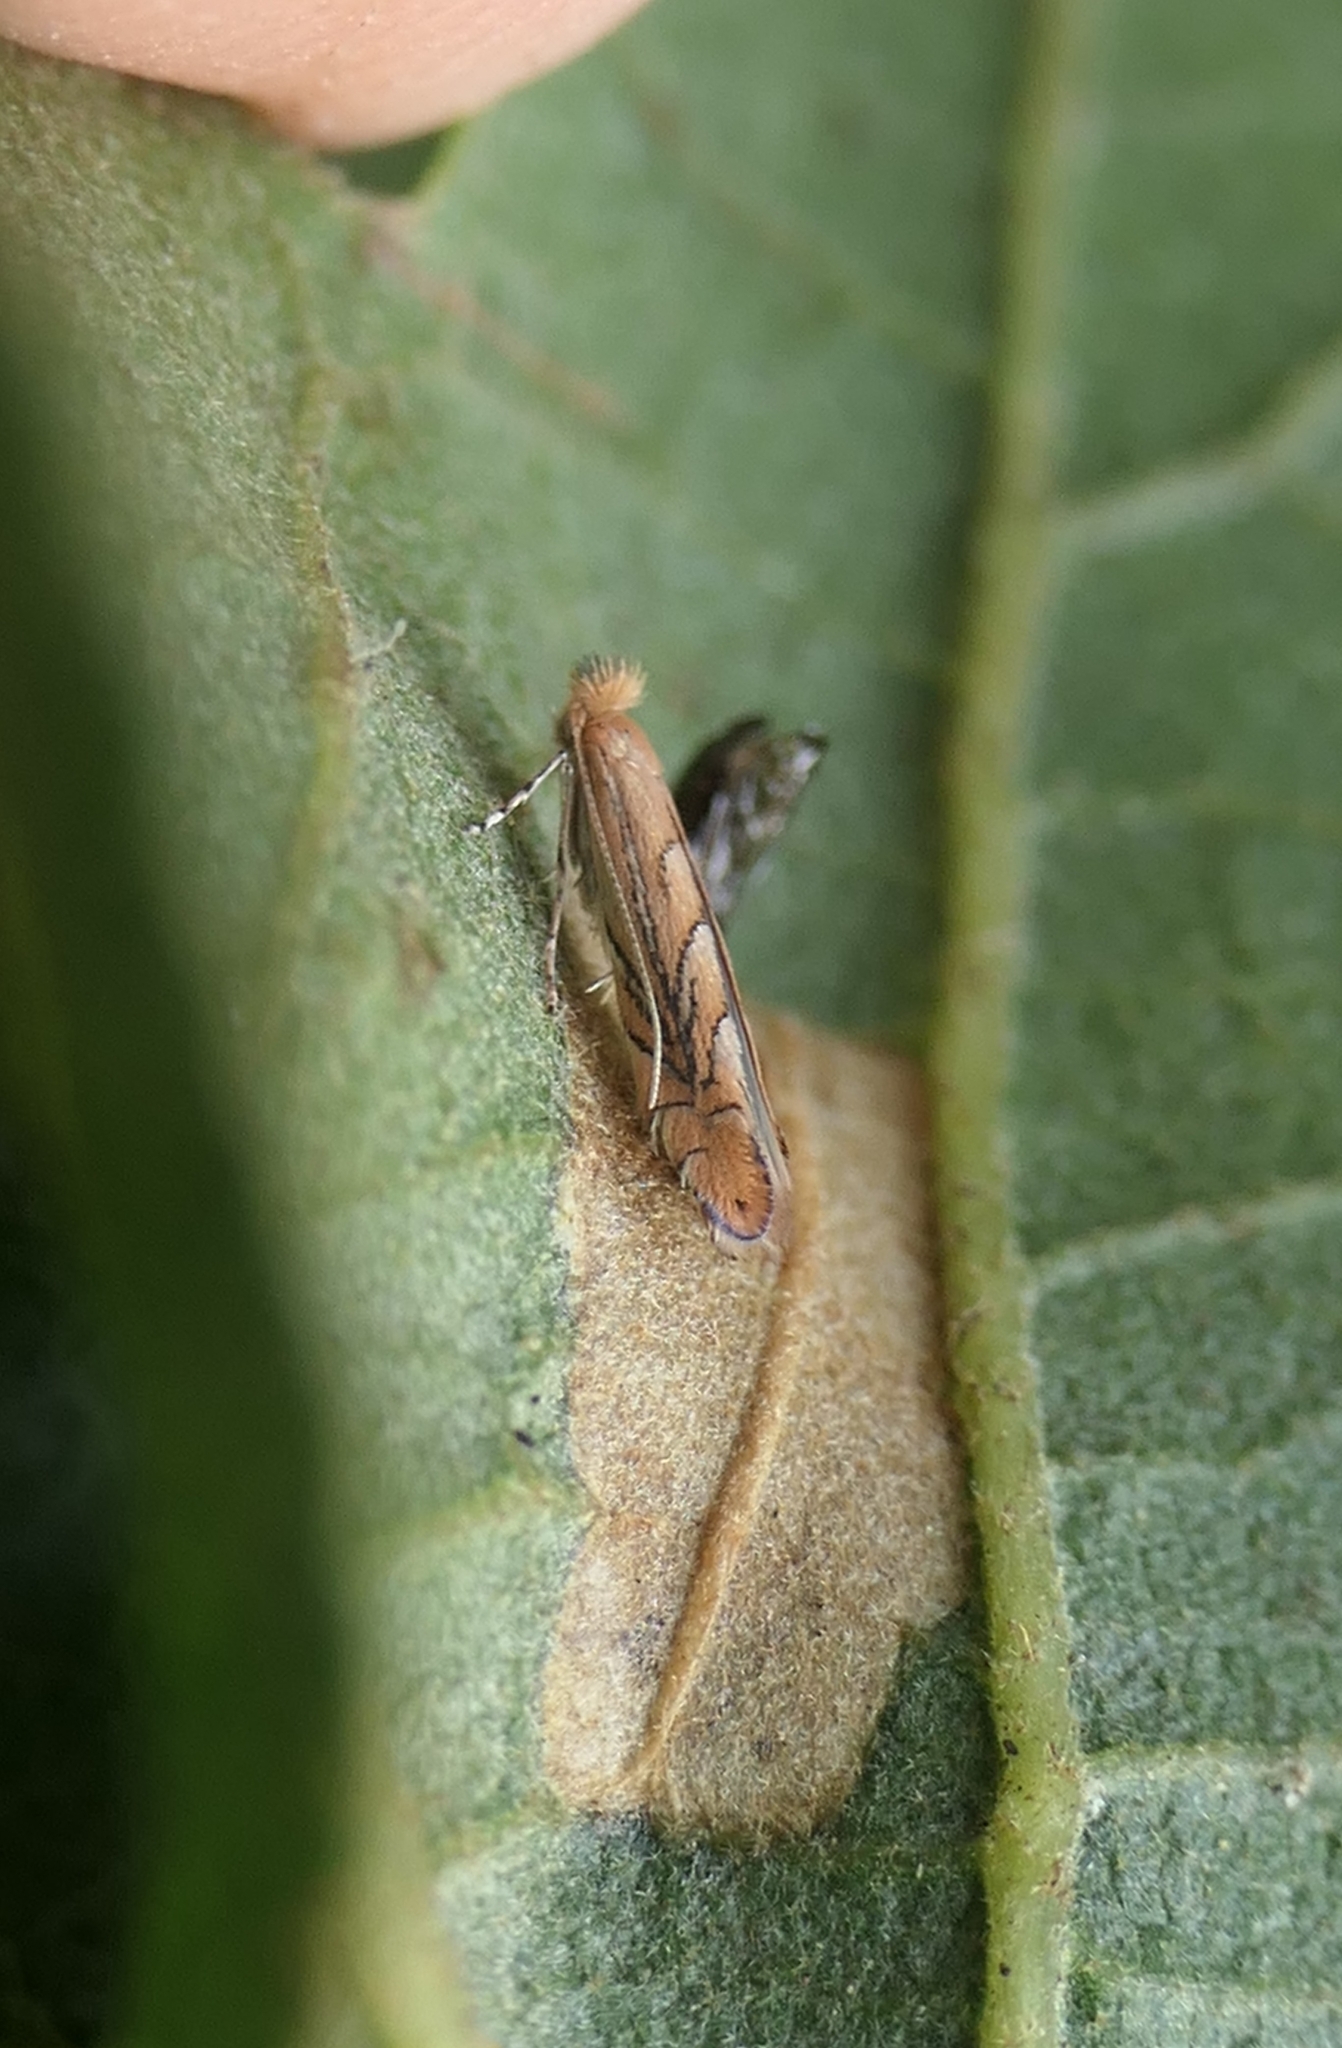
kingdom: Animalia
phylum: Arthropoda
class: Insecta
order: Lepidoptera
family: Gracillariidae
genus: Phyllonorycter
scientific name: Phyllonorycter messaniella
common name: Garden midget
